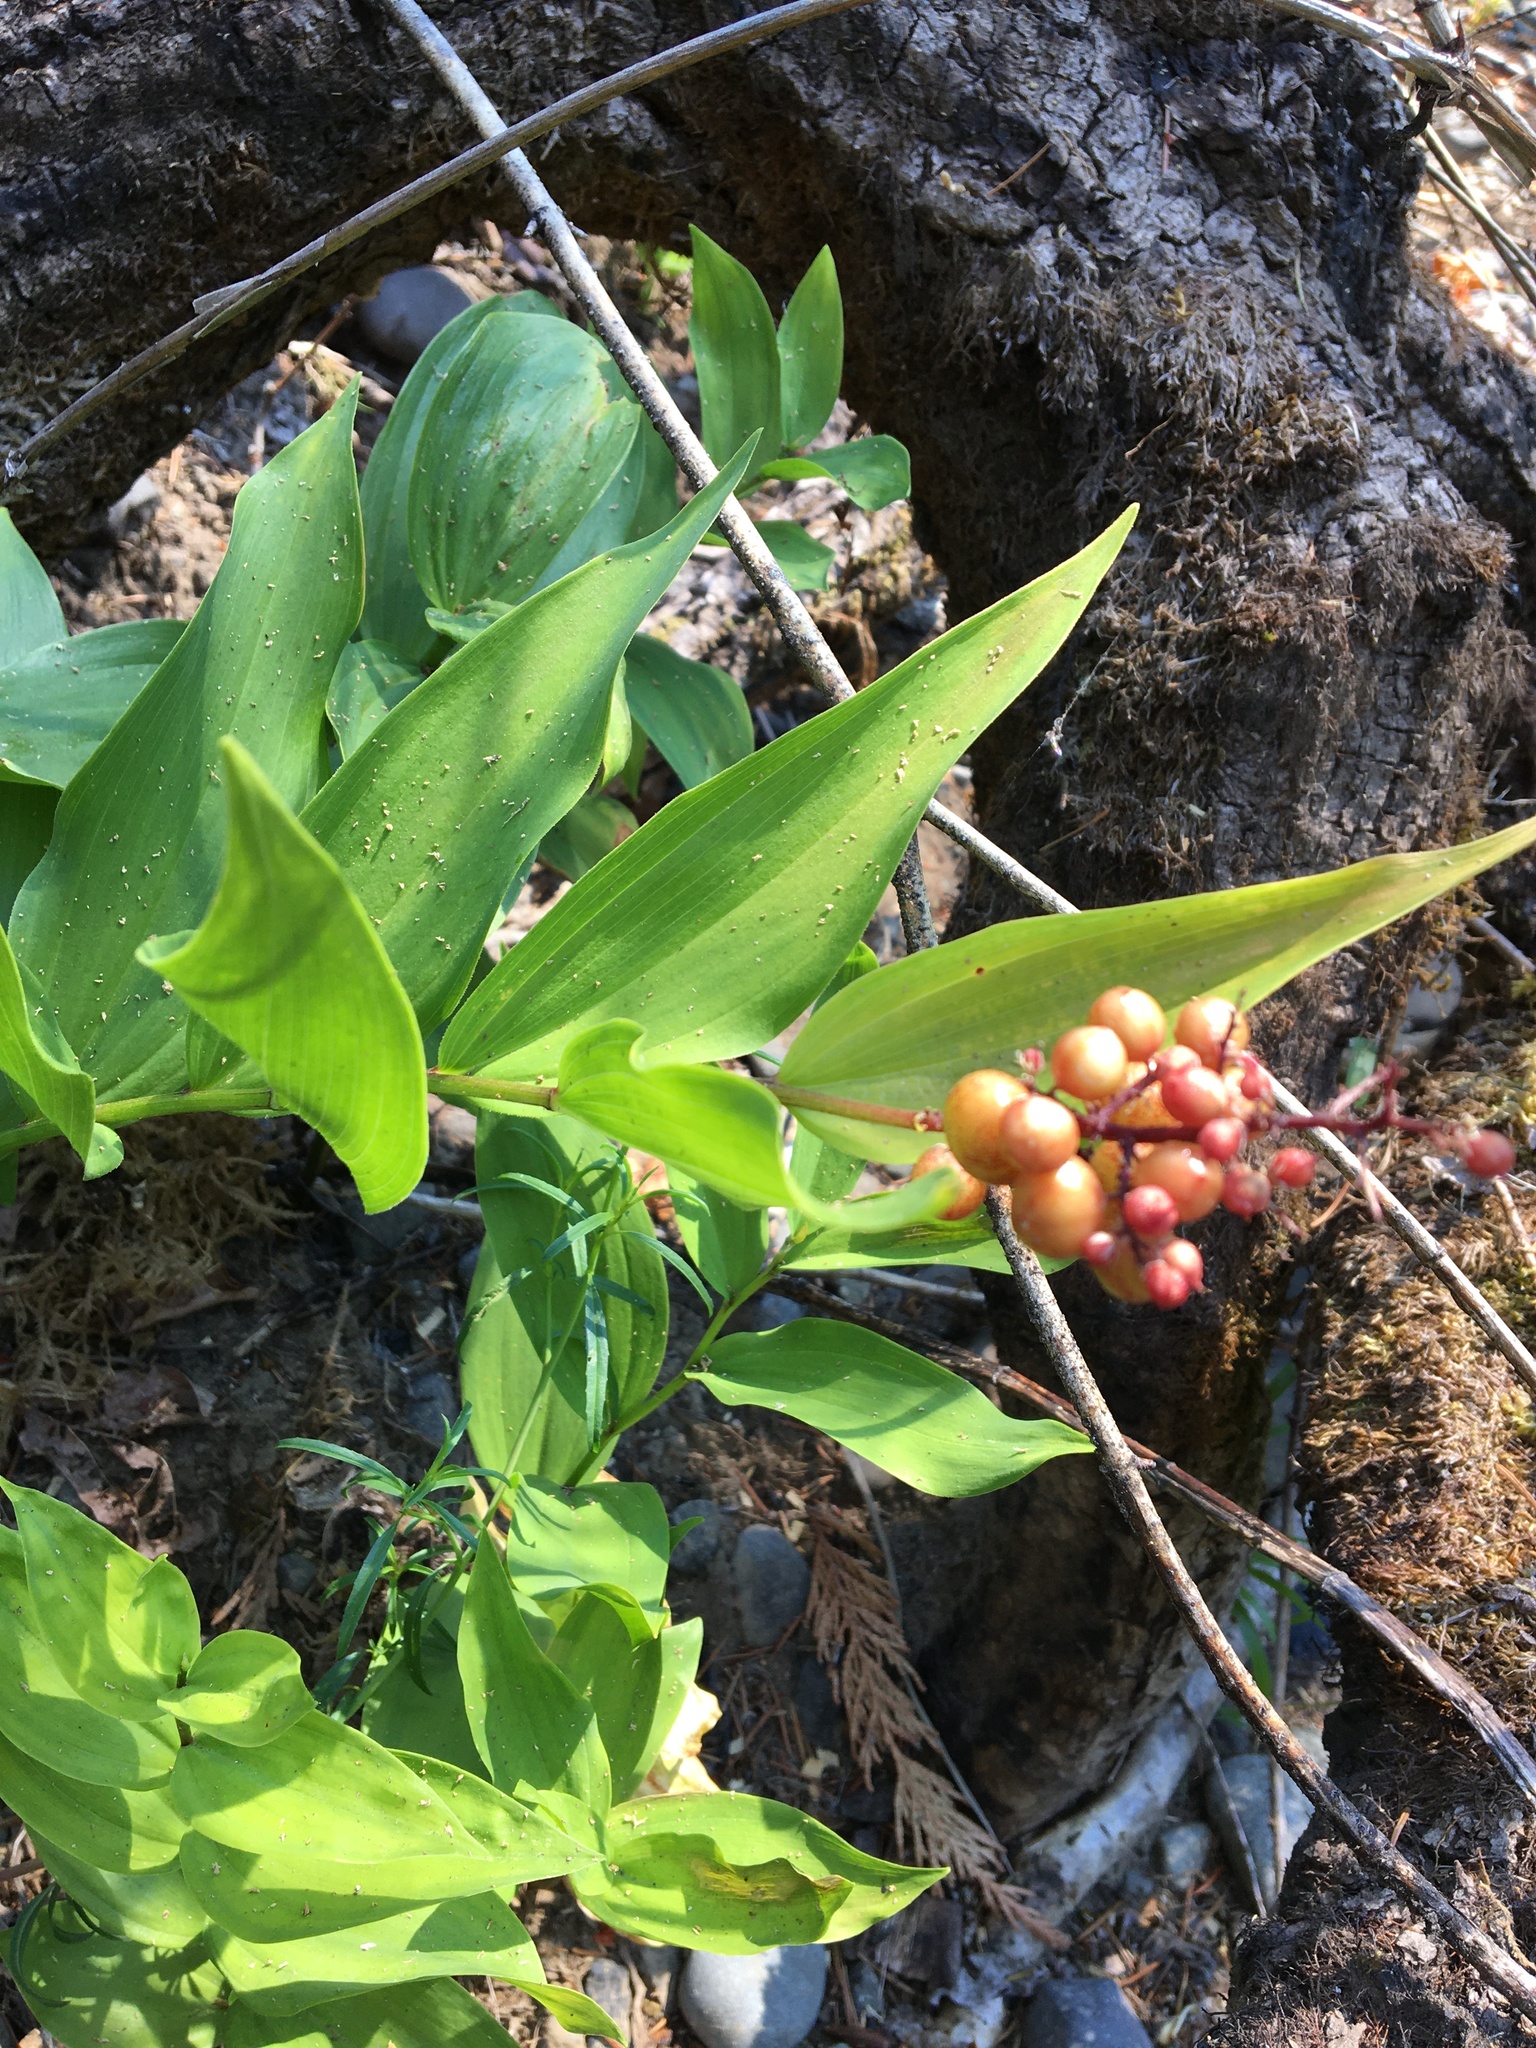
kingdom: Plantae
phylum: Tracheophyta
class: Liliopsida
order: Asparagales
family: Asparagaceae
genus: Maianthemum
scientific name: Maianthemum racemosum
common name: False spikenard
